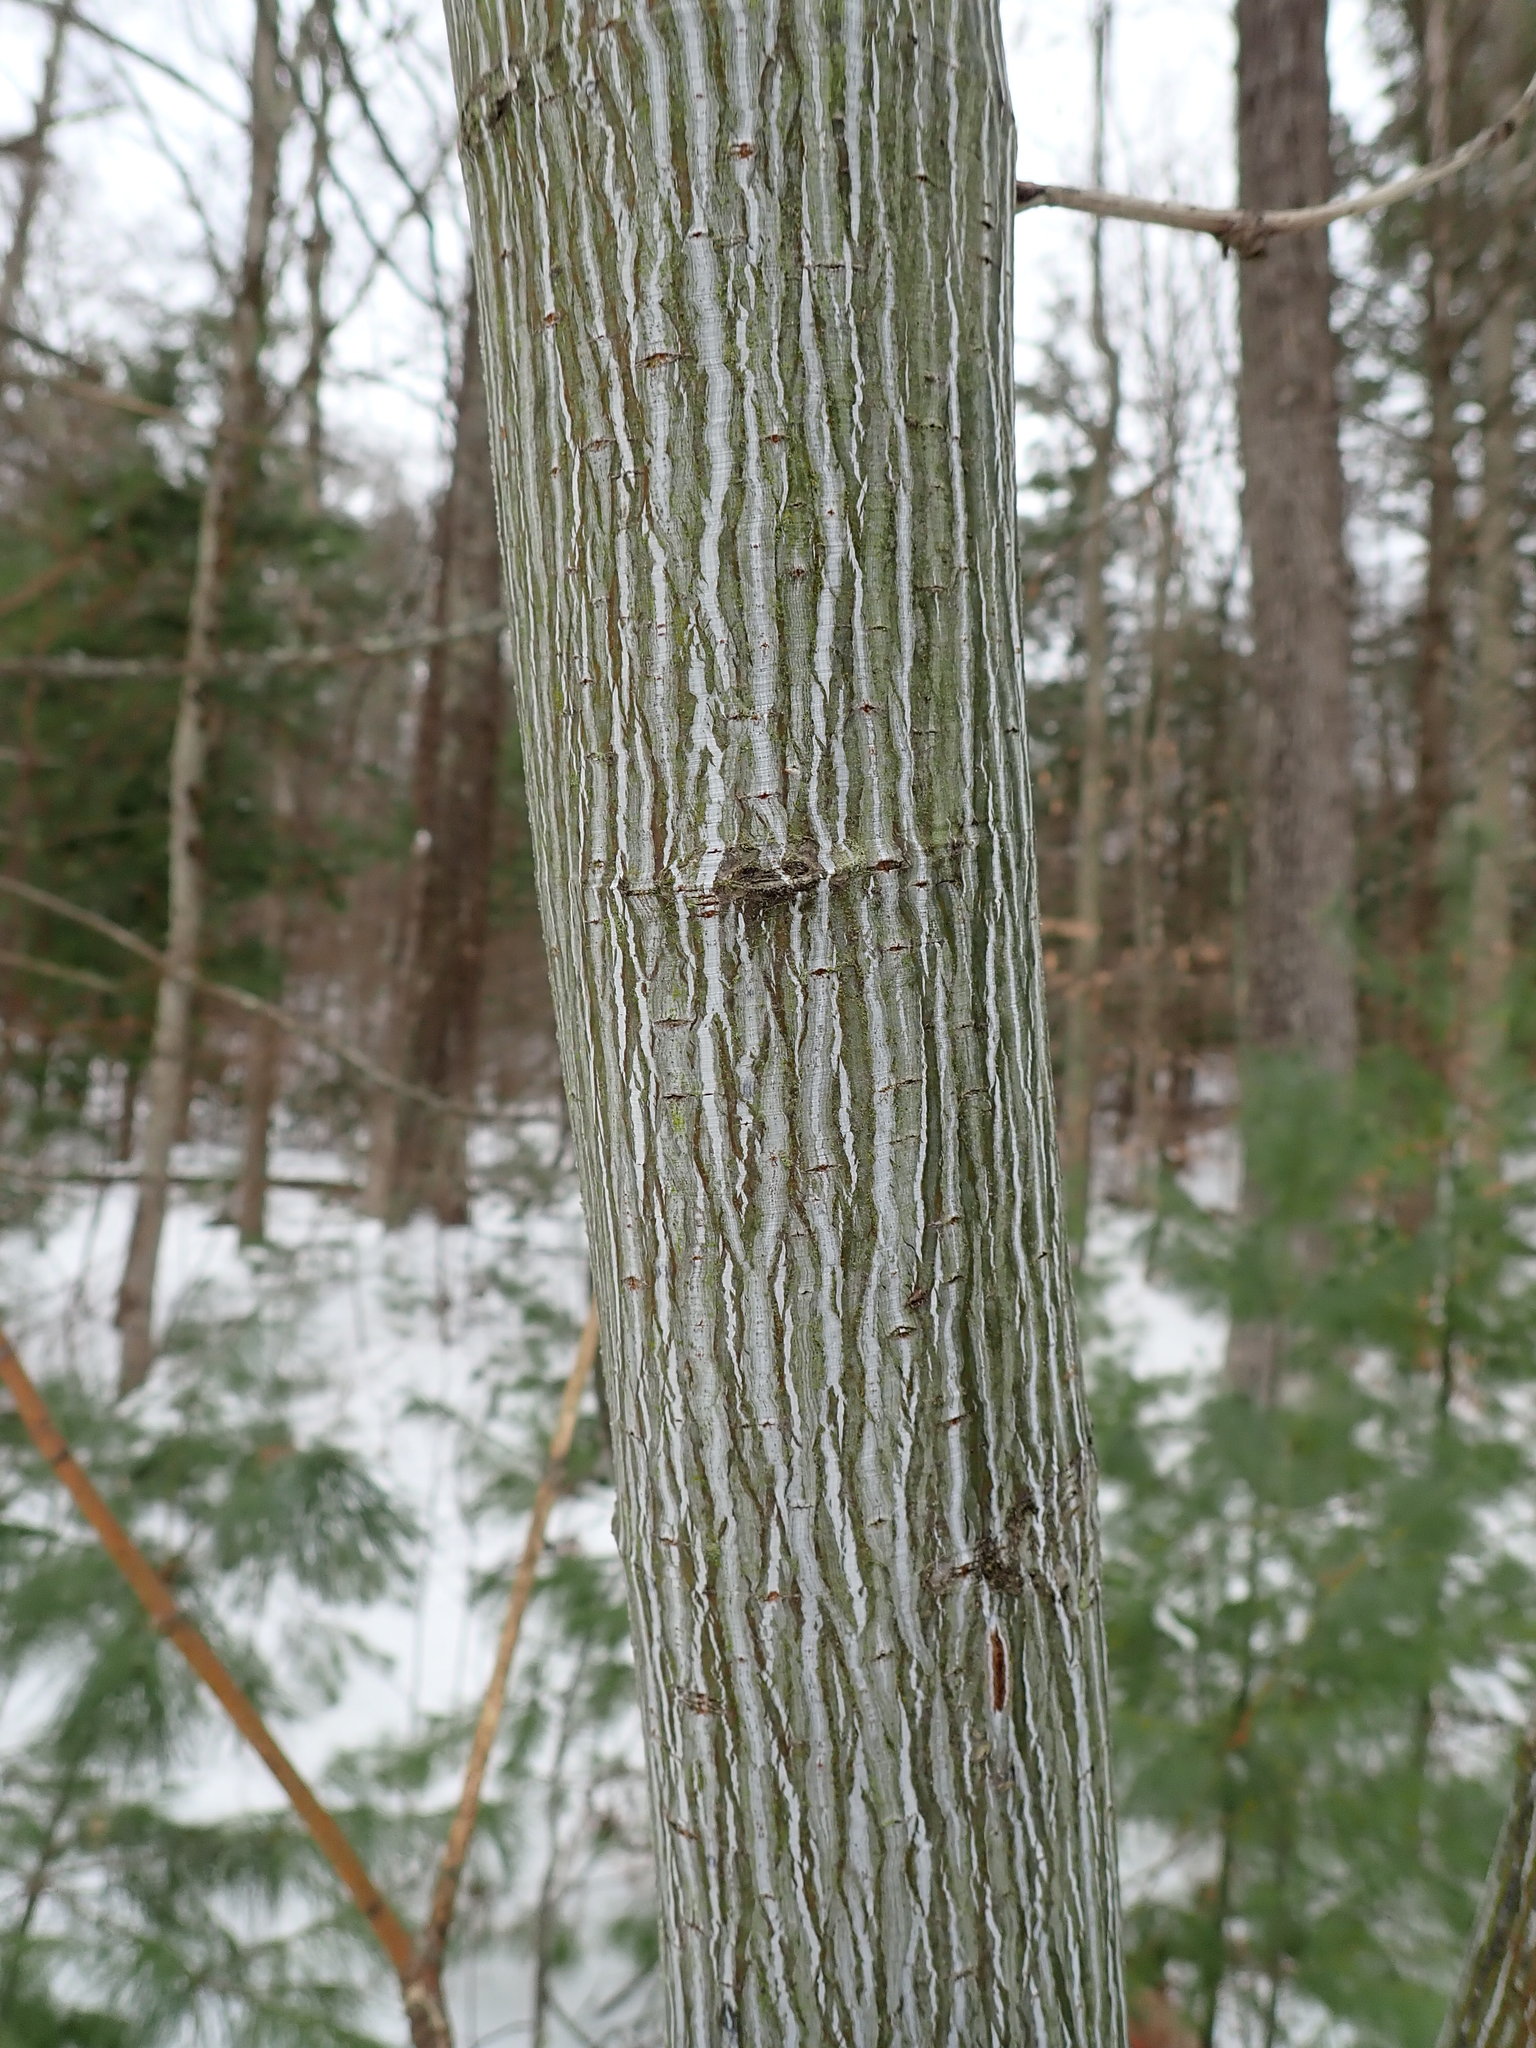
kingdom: Plantae
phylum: Tracheophyta
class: Magnoliopsida
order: Sapindales
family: Sapindaceae
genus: Acer
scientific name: Acer pensylvanicum
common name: Moosewood
